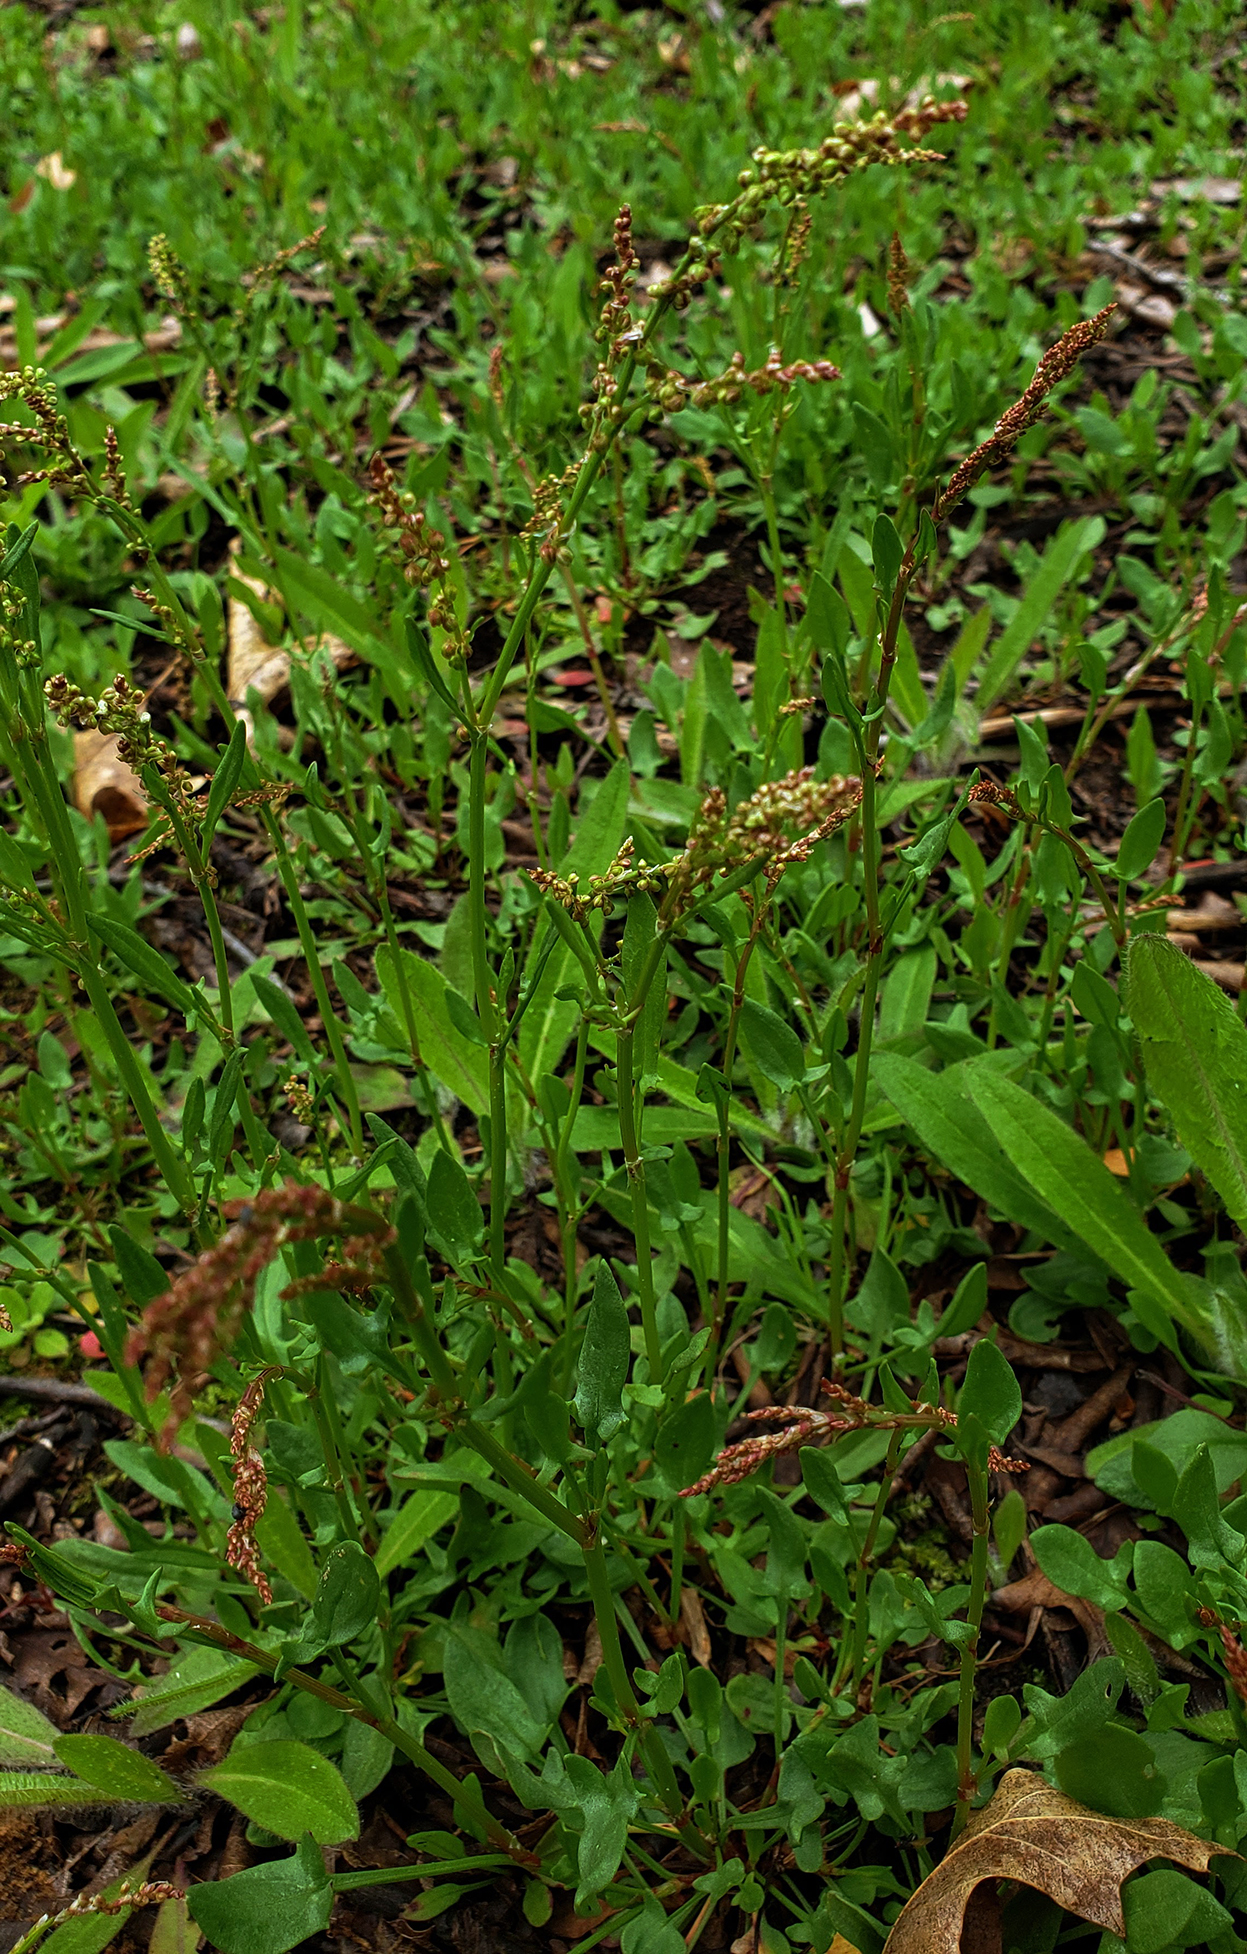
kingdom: Plantae
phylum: Tracheophyta
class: Magnoliopsida
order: Caryophyllales
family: Polygonaceae
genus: Rumex
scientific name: Rumex acetosella
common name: Common sheep sorrel
